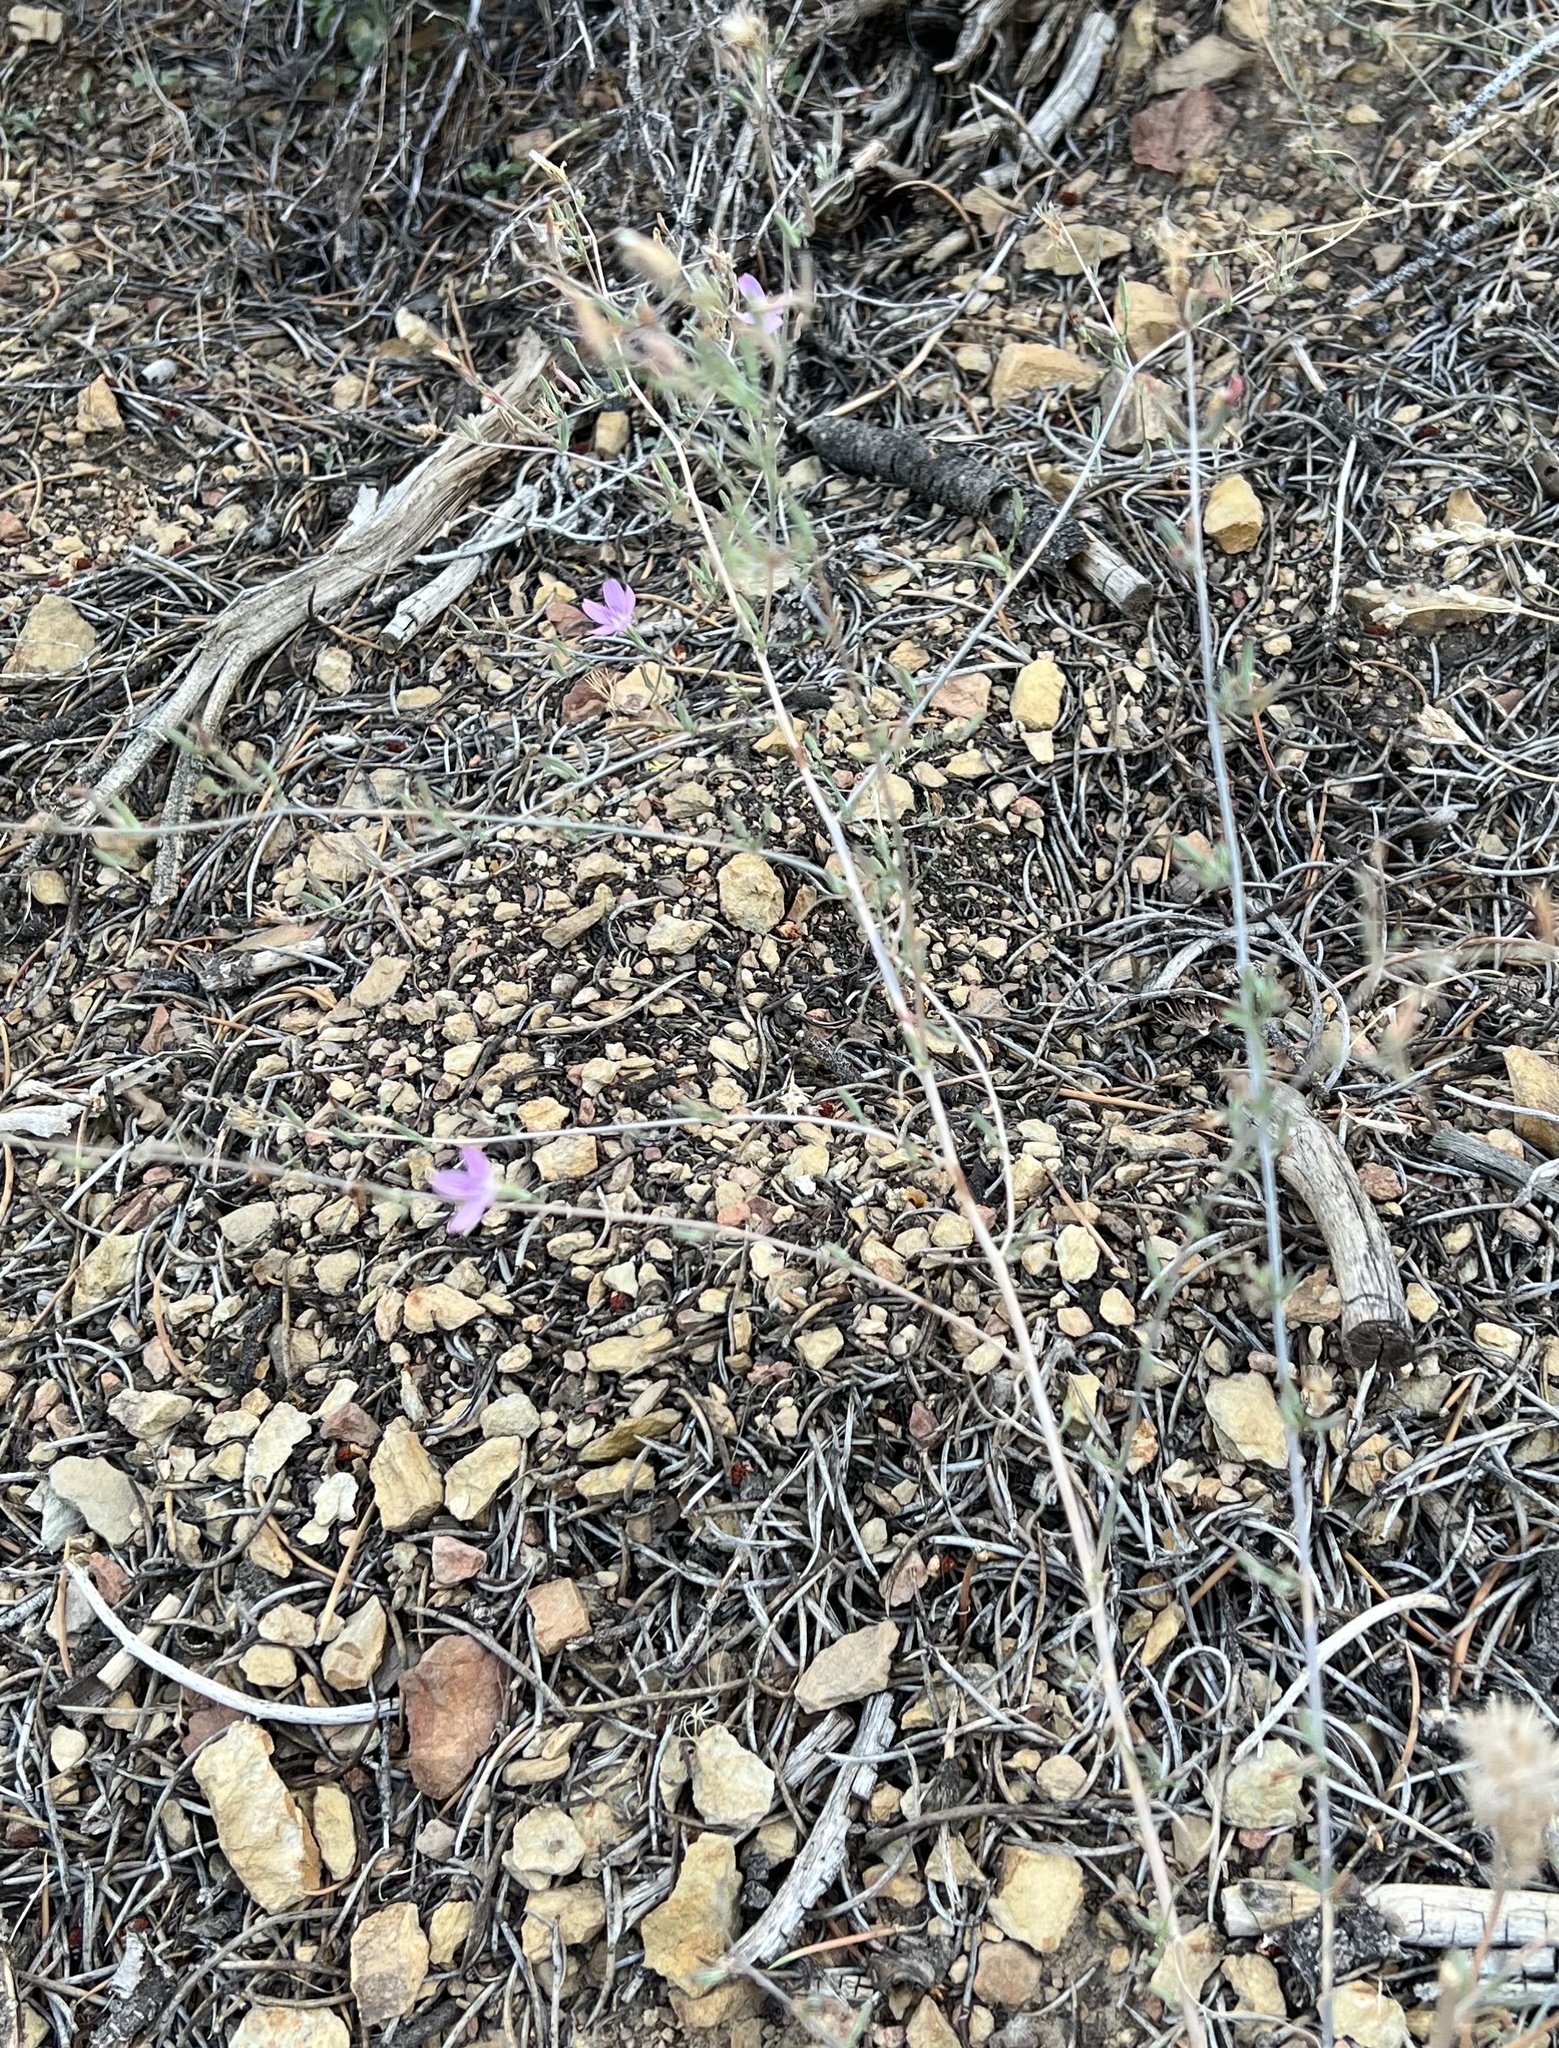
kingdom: Plantae
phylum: Tracheophyta
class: Magnoliopsida
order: Asterales
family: Asteraceae
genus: Stephanomeria
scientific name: Stephanomeria exigua
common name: Small wirelettuce
